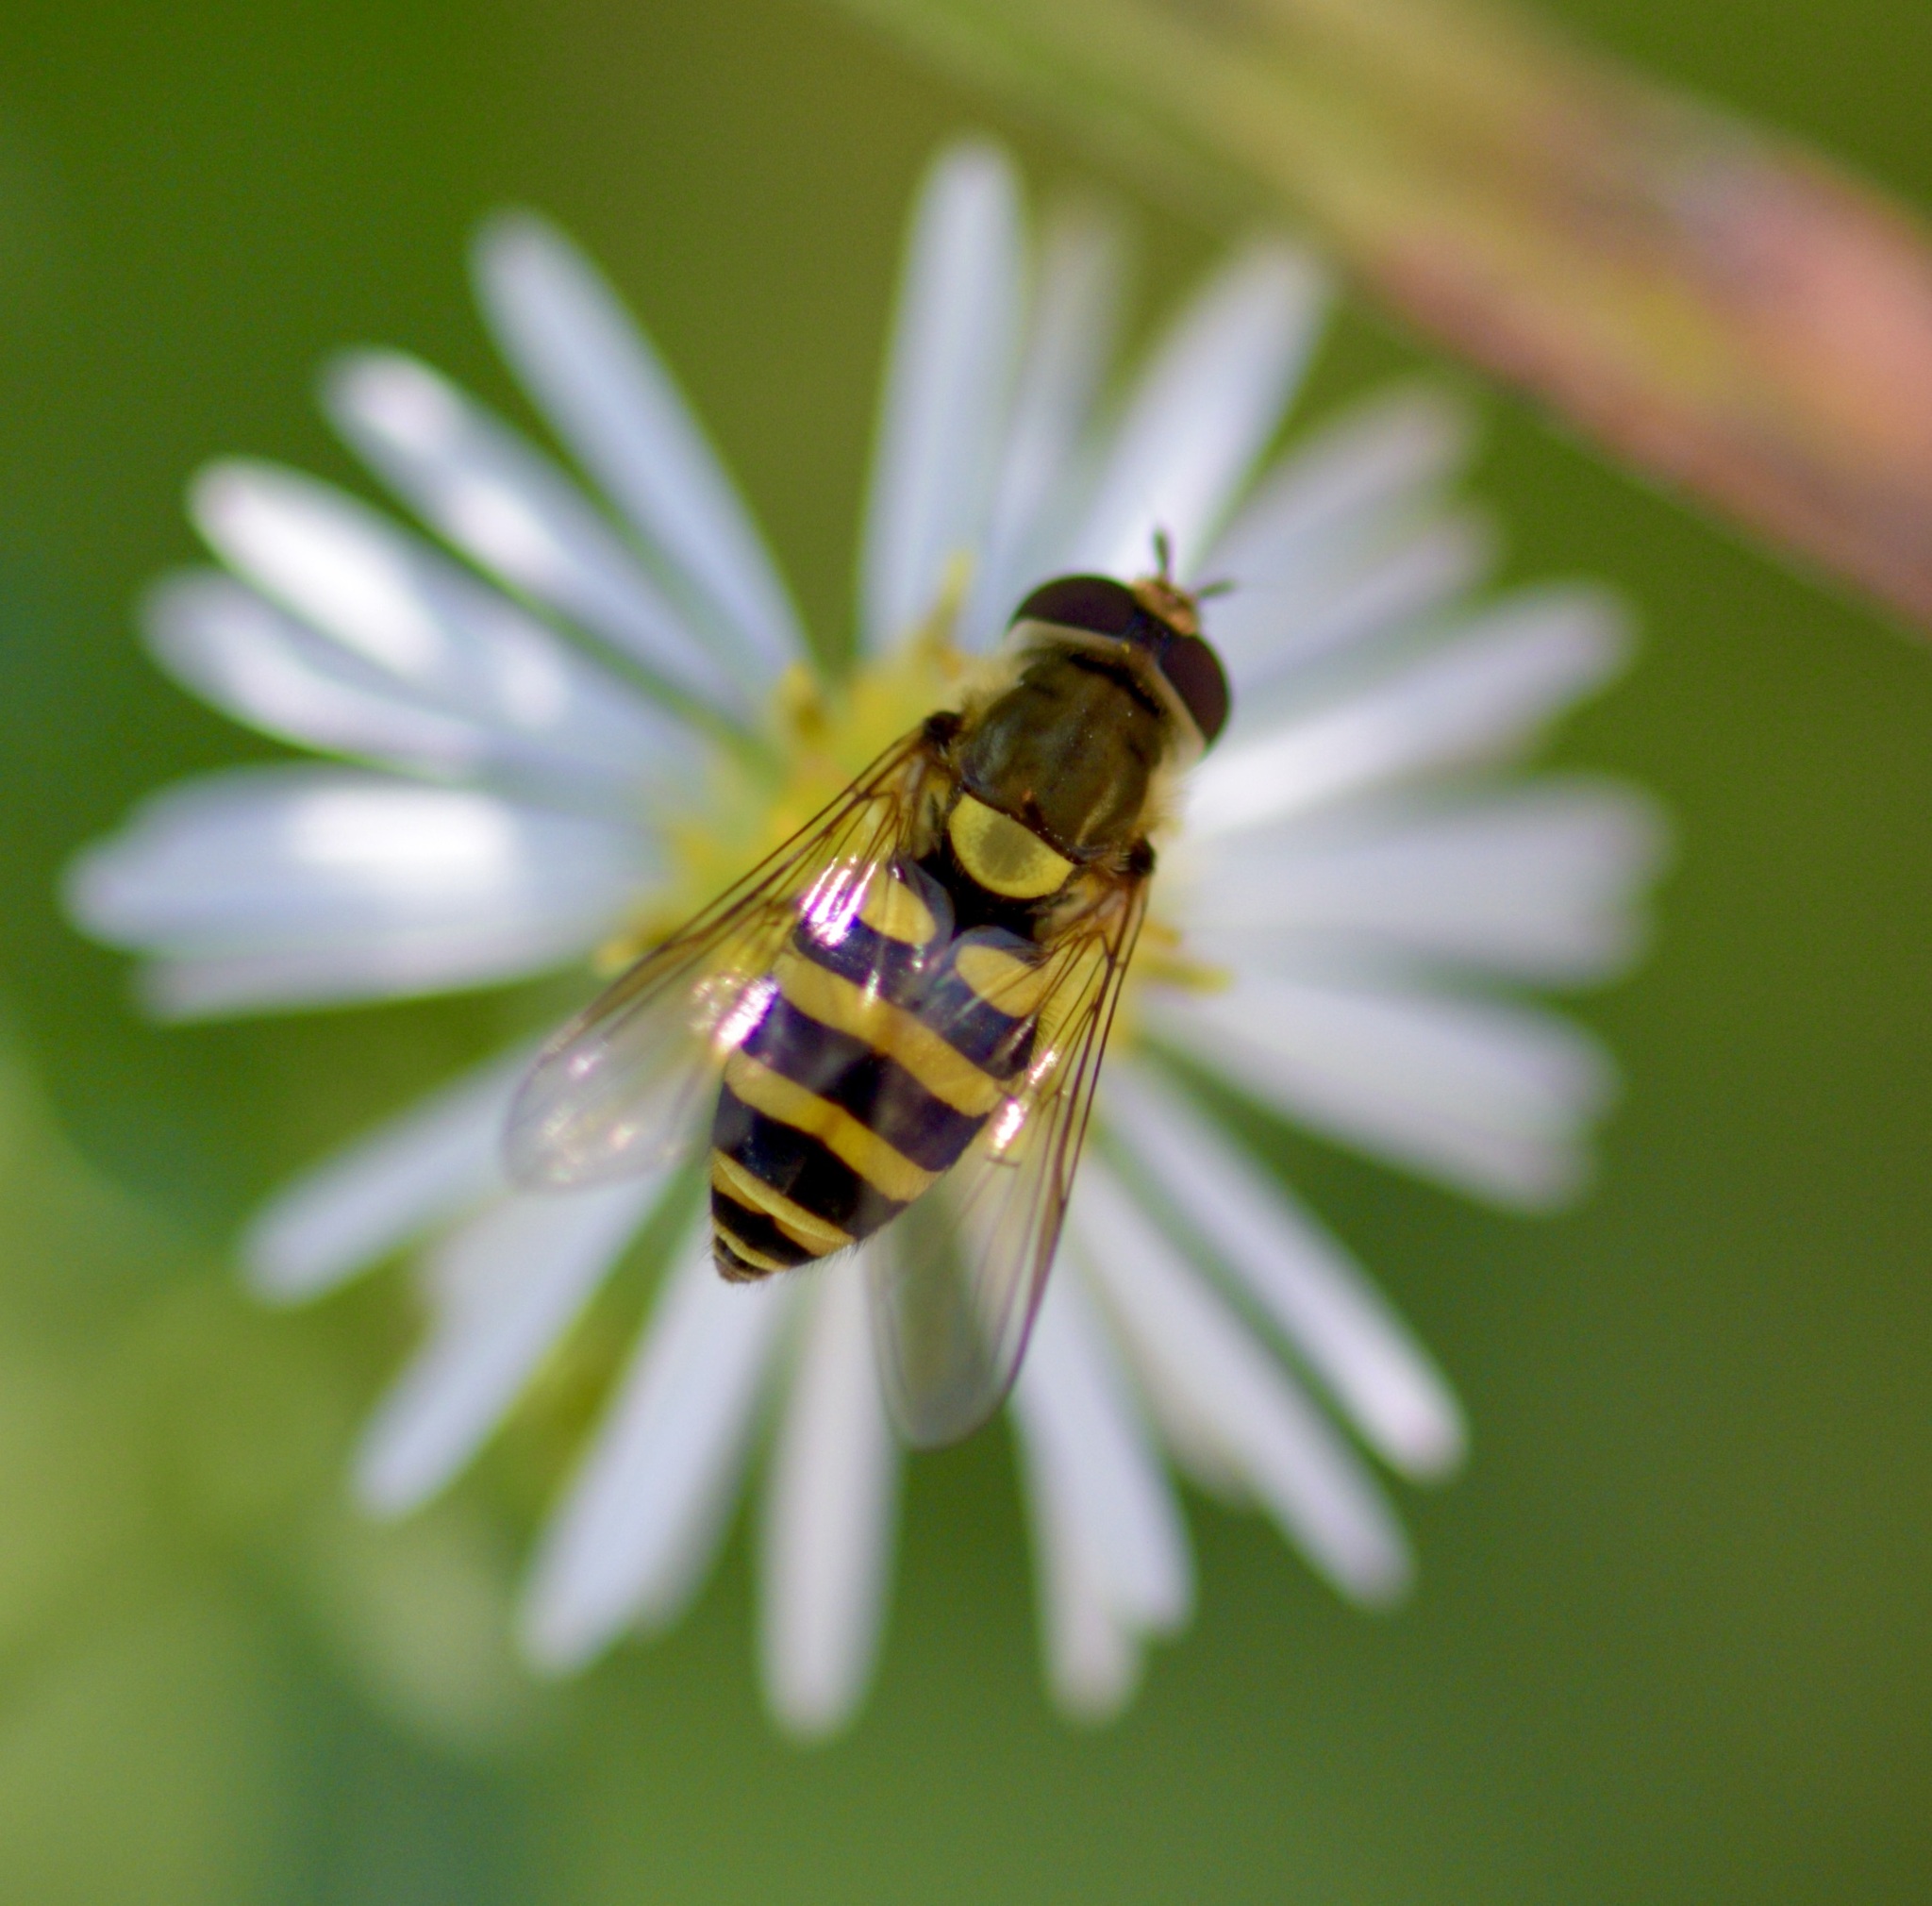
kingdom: Animalia
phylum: Arthropoda
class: Insecta
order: Diptera
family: Syrphidae
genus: Syrphus
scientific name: Syrphus rectus
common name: Yellow-legged flower fly
